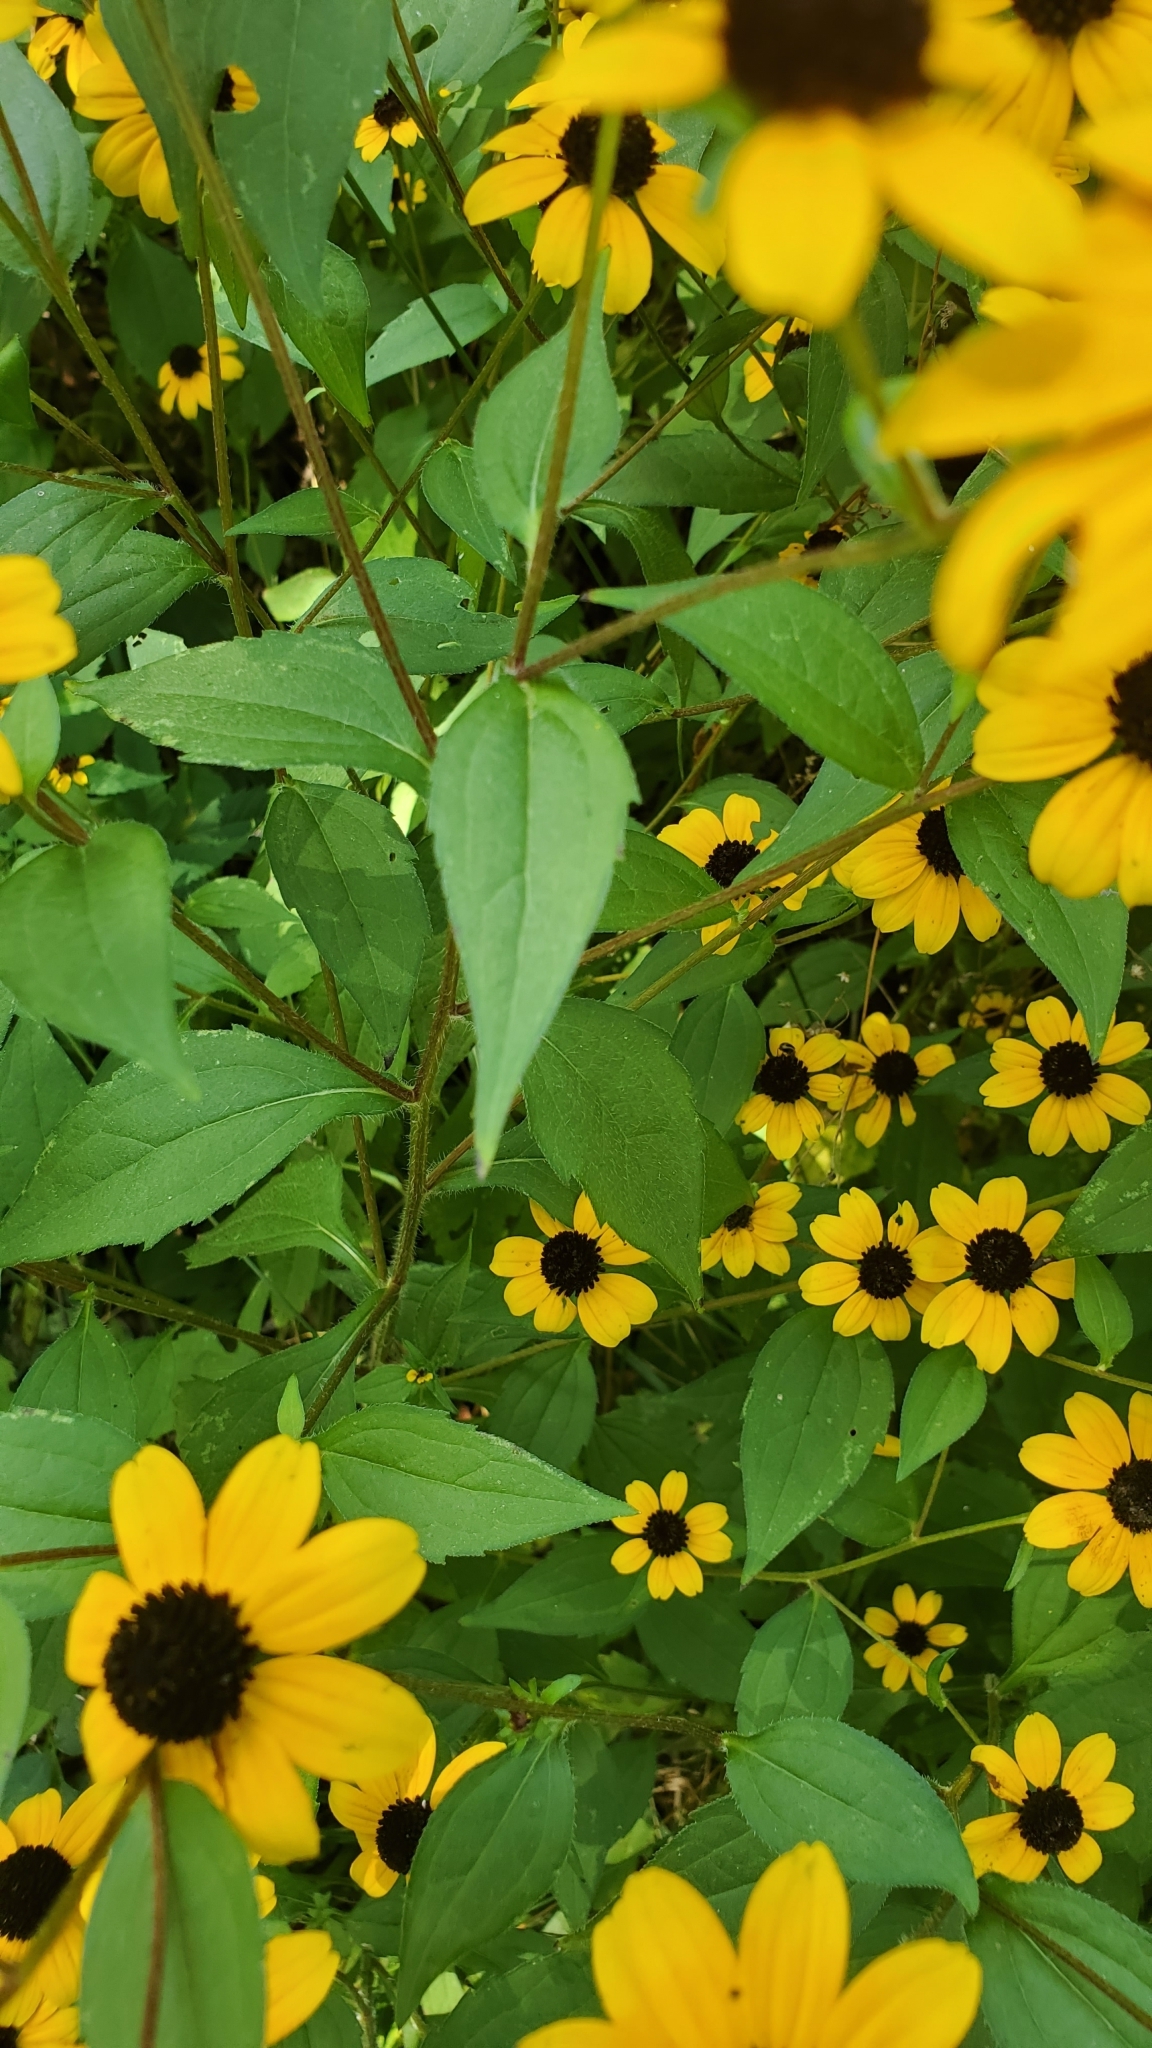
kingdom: Plantae
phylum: Tracheophyta
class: Magnoliopsida
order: Asterales
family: Asteraceae
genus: Rudbeckia
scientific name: Rudbeckia triloba
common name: Thin-leaved coneflower
